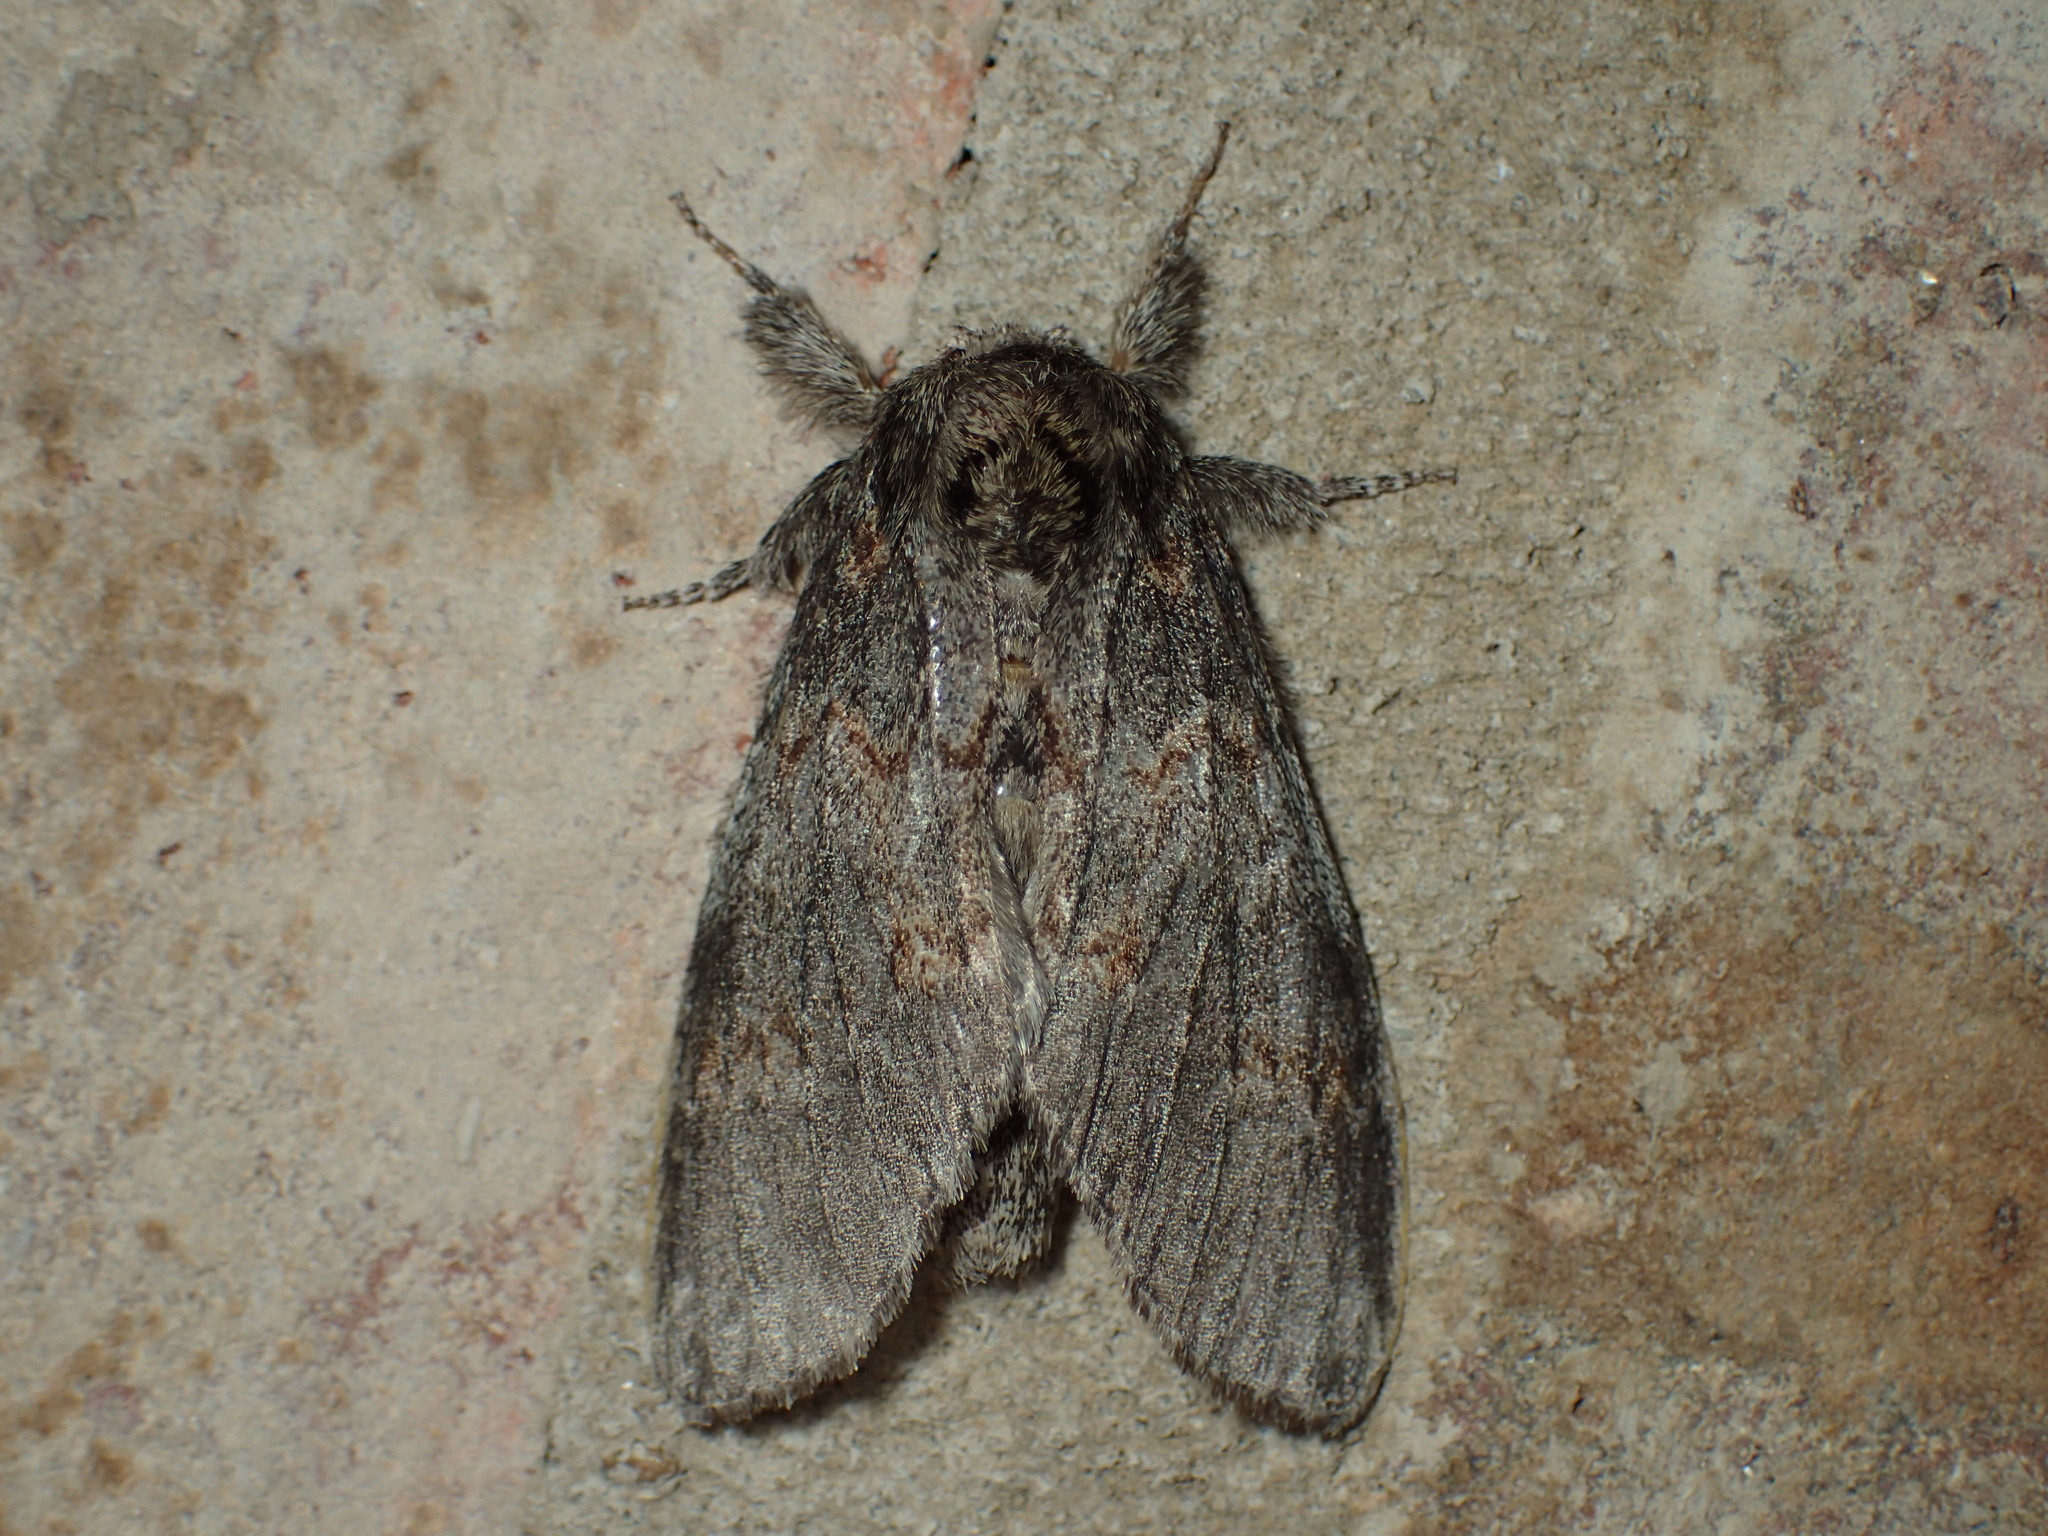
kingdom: Animalia
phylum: Arthropoda
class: Insecta
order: Lepidoptera
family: Notodontidae
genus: Peridea
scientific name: Peridea angulosa
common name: Angulose prominent
